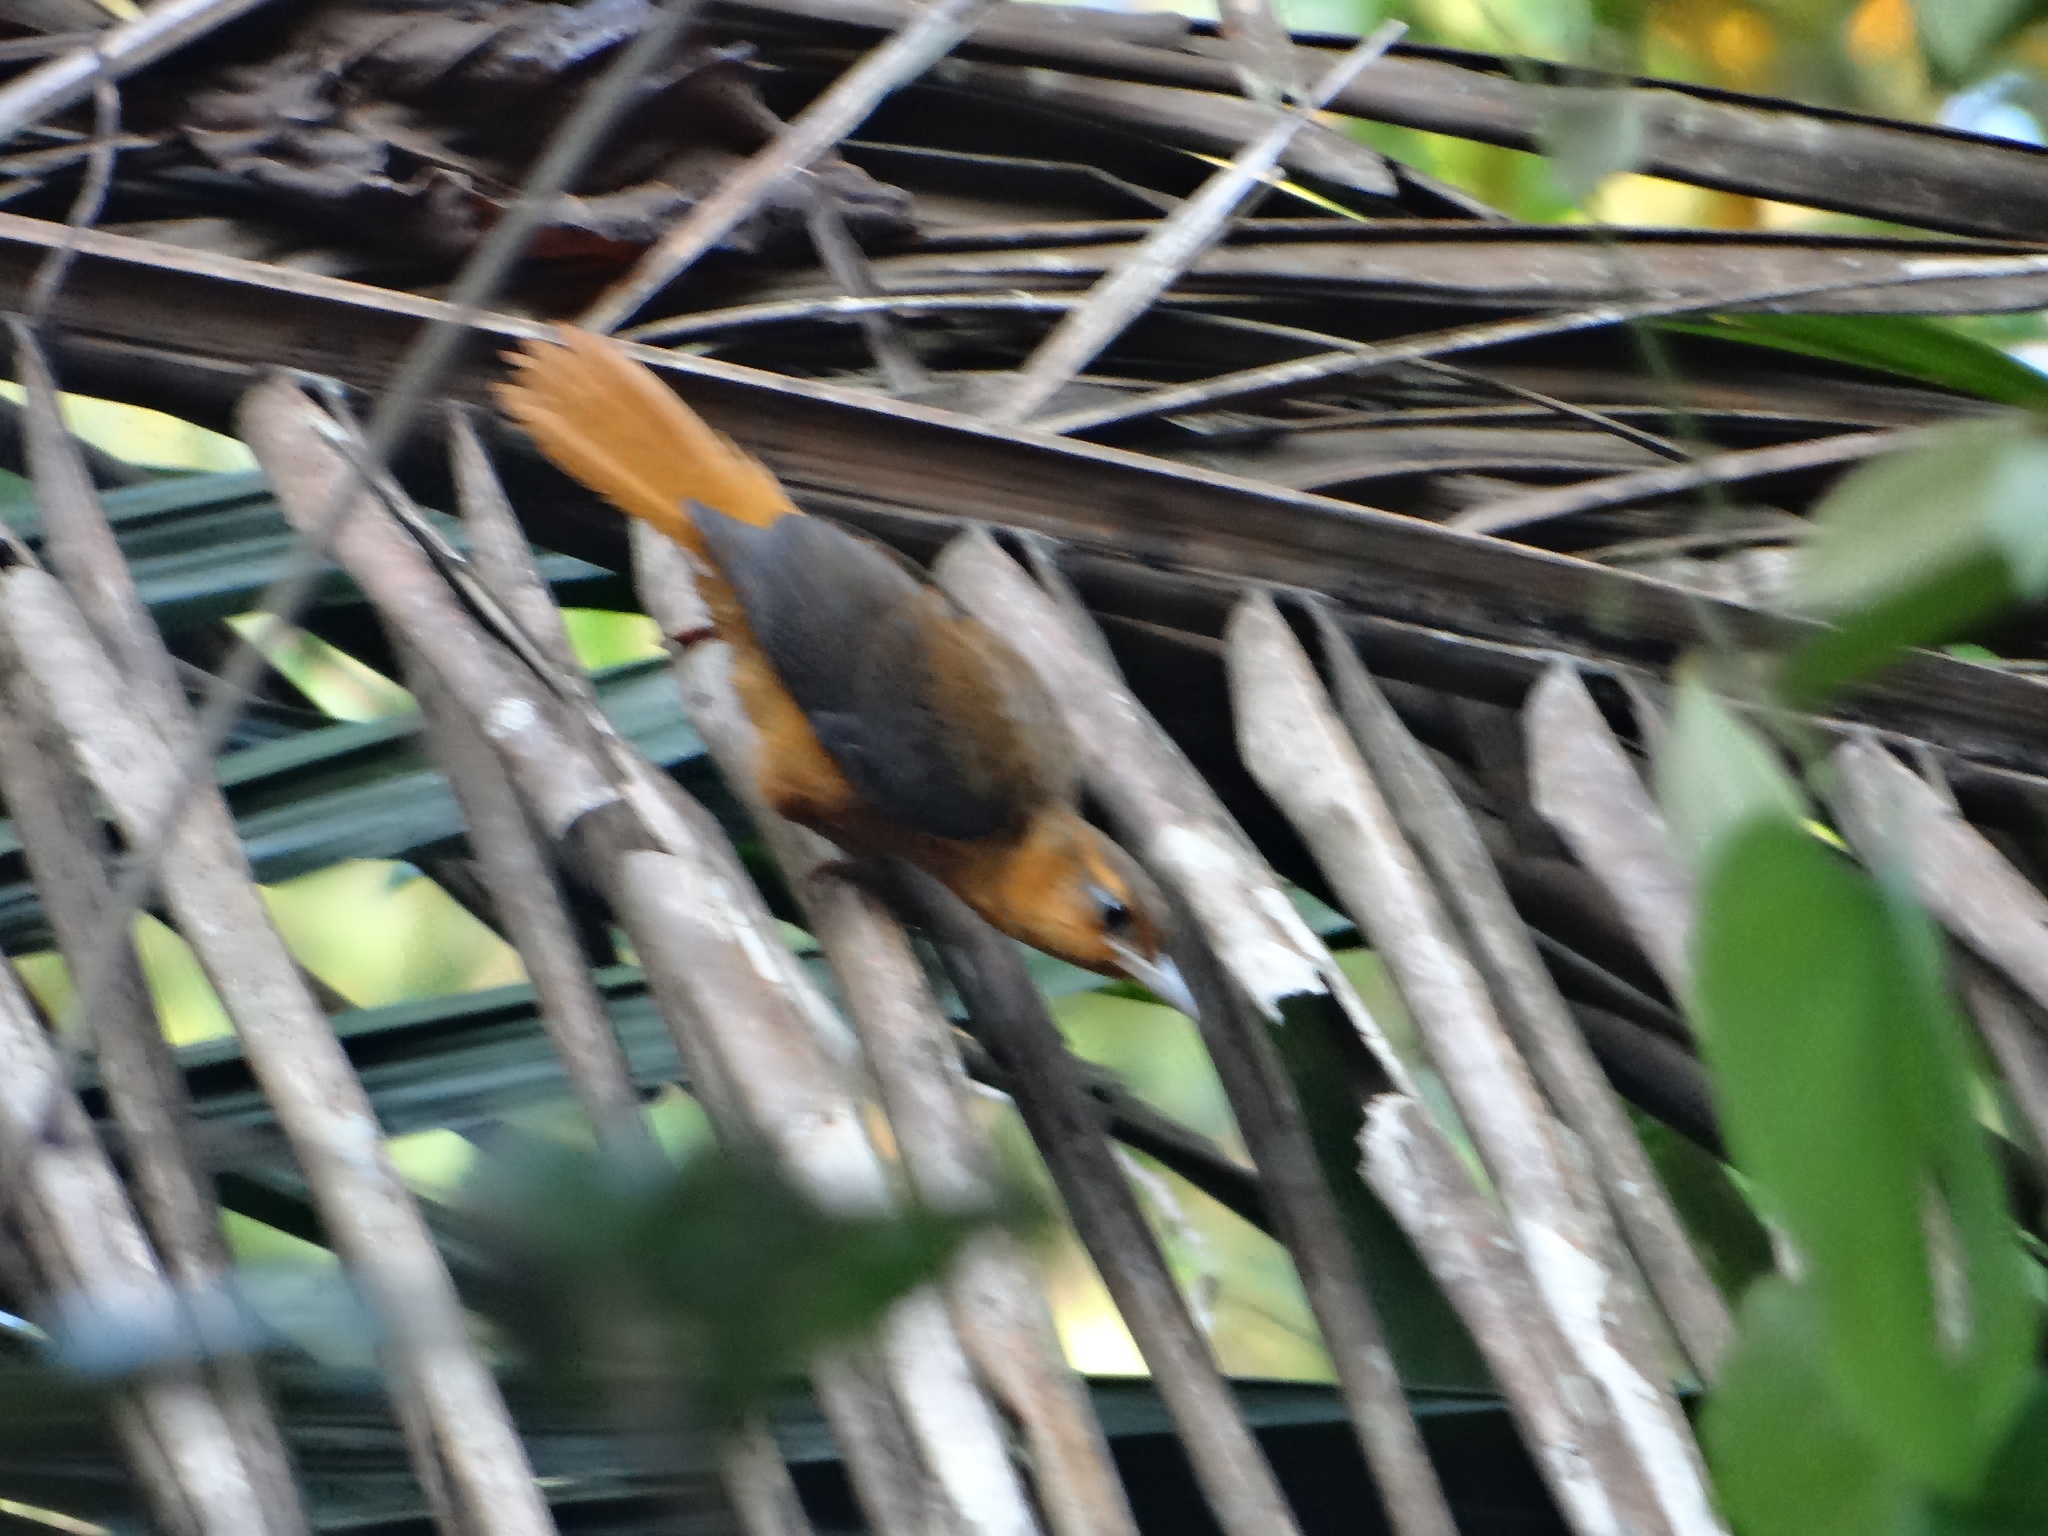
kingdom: Animalia
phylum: Chordata
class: Aves
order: Passeriformes
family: Furnariidae
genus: Philydor
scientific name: Philydor pyrrhodes
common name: Cinnamon-rumped foliage-gleaner
